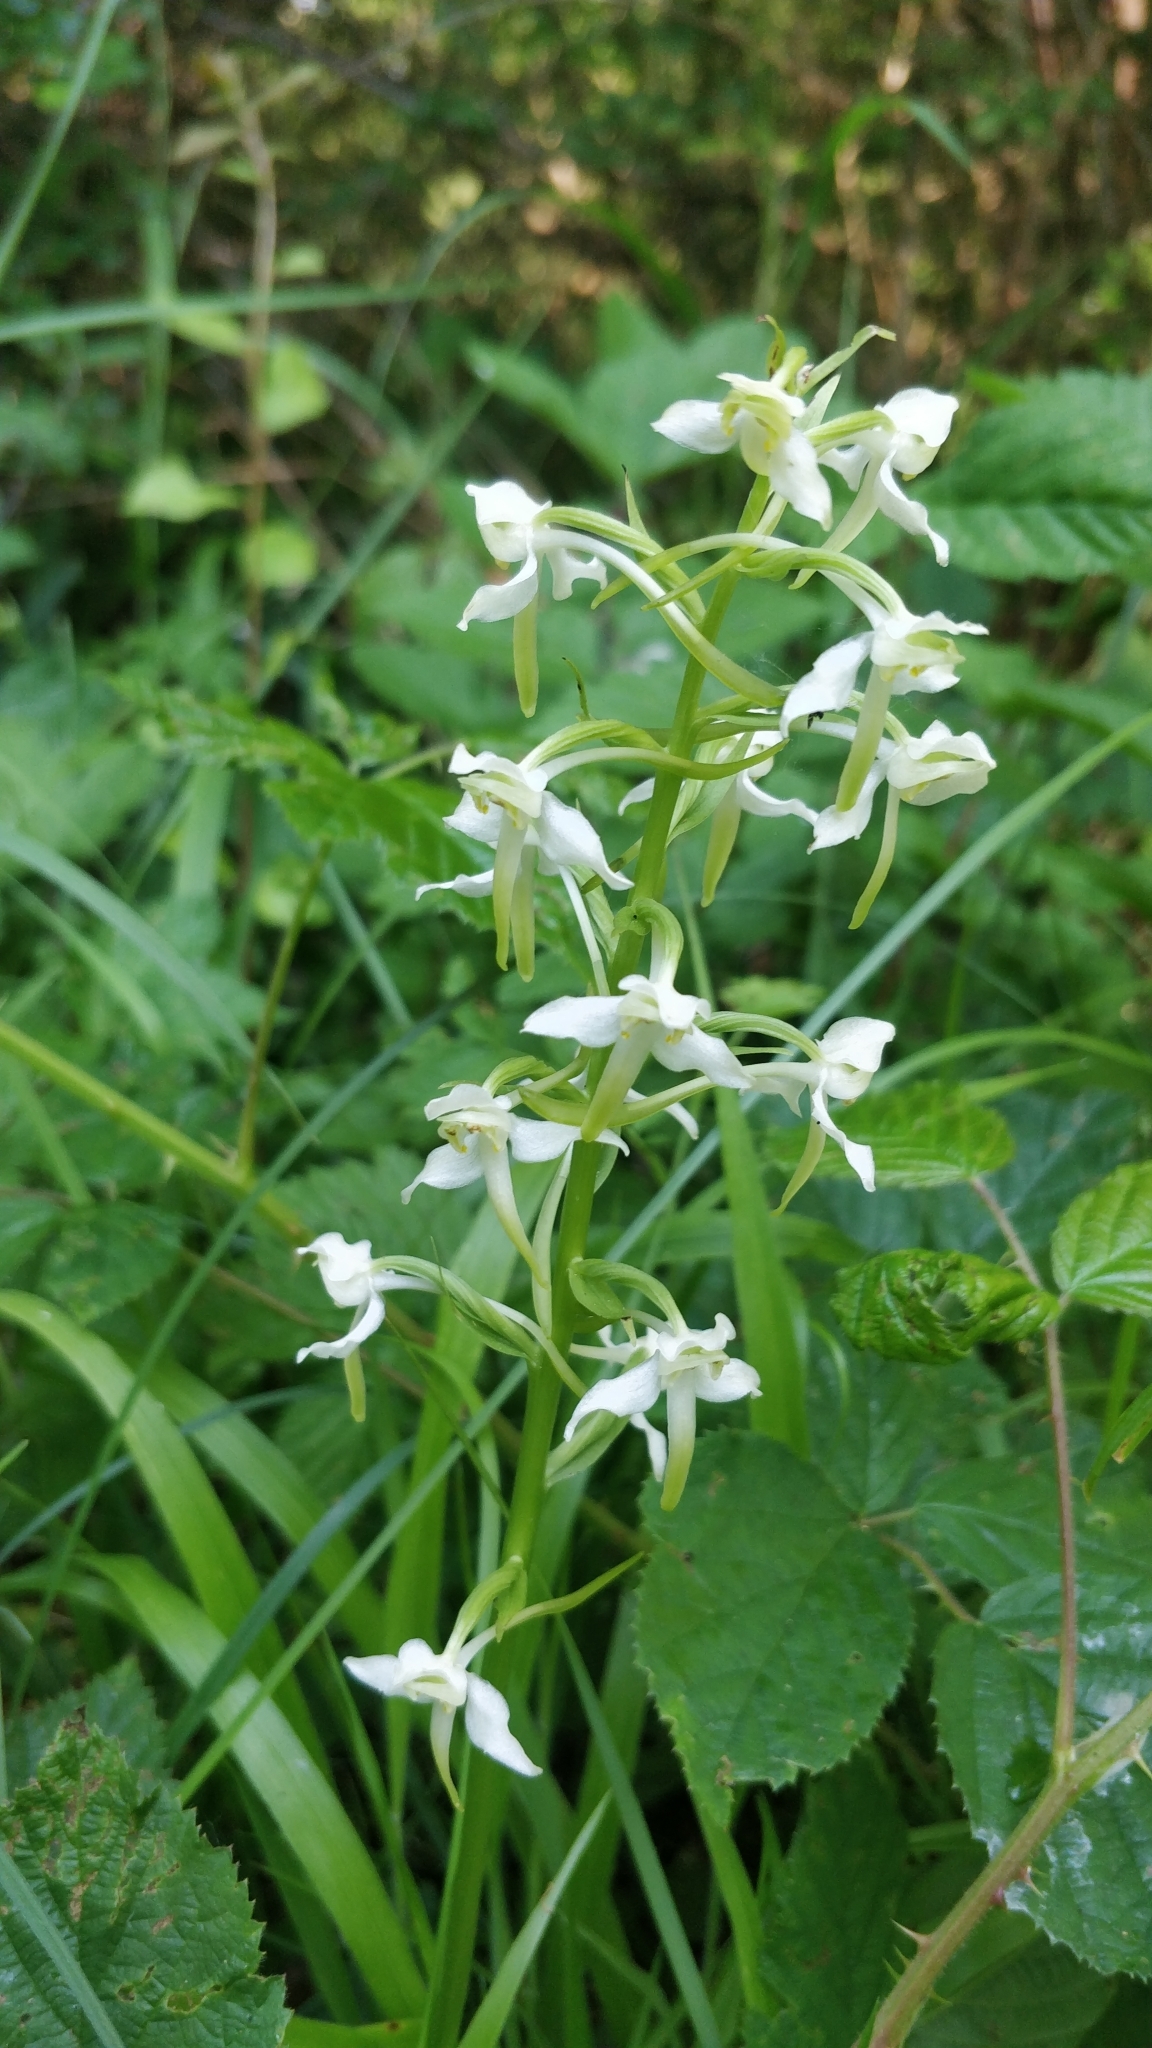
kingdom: Plantae
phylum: Tracheophyta
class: Liliopsida
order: Asparagales
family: Orchidaceae
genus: Platanthera
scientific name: Platanthera chlorantha
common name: Greater butterfly-orchid
